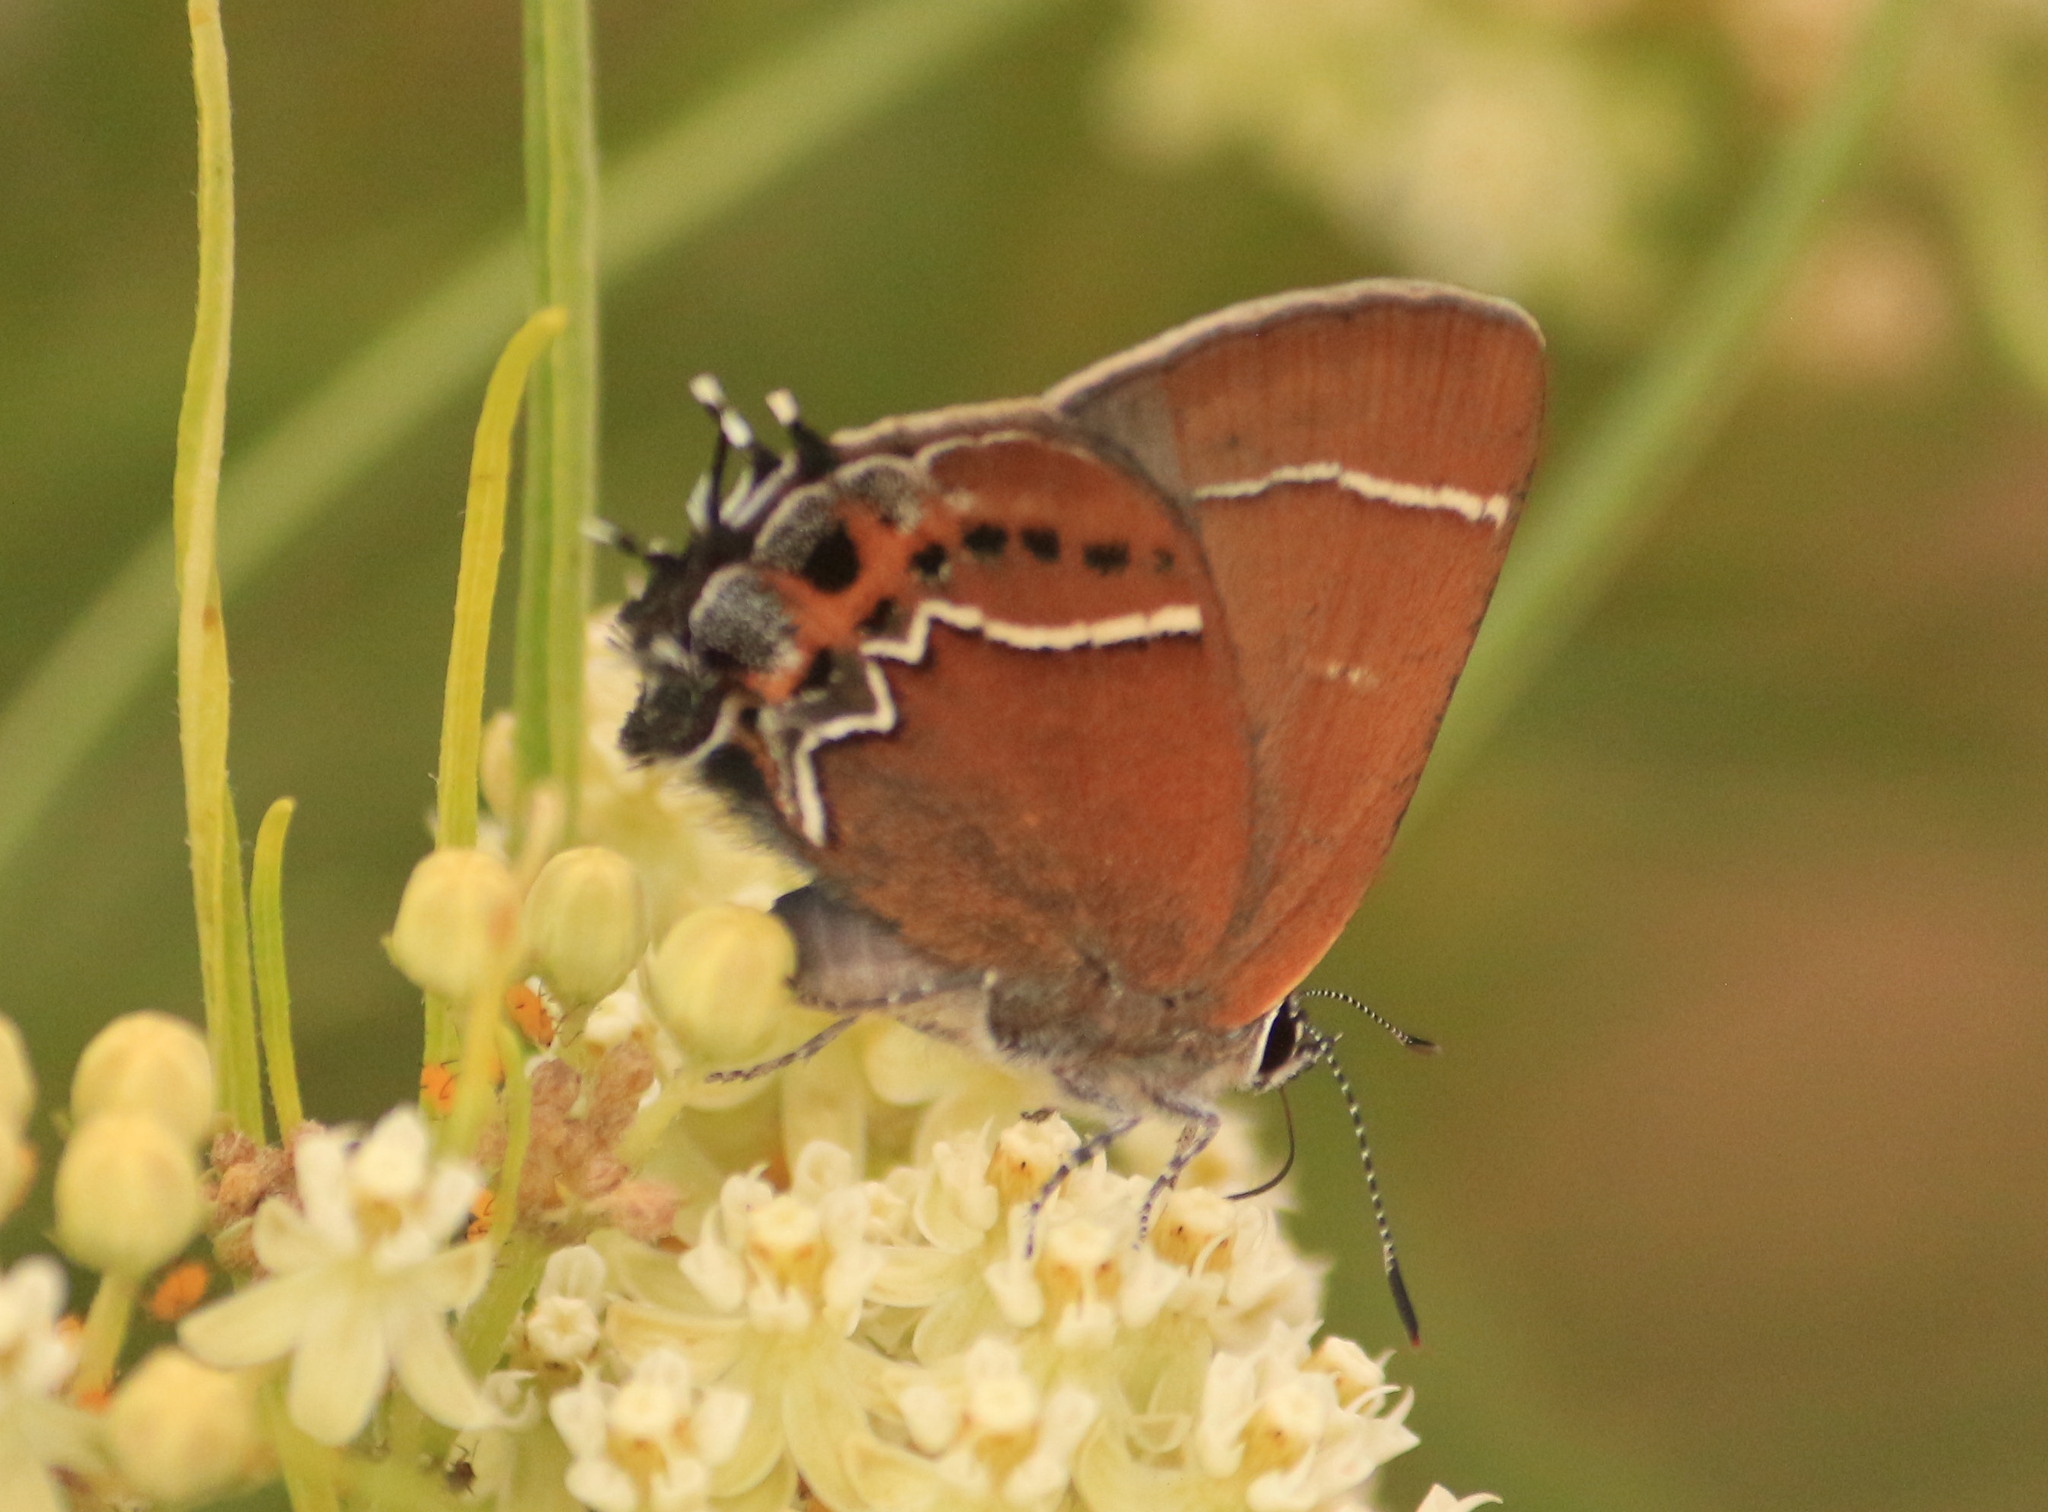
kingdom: Animalia
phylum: Arthropoda
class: Insecta
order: Lepidoptera
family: Lycaenidae
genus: Mitoura
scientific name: Mitoura spinetorum
